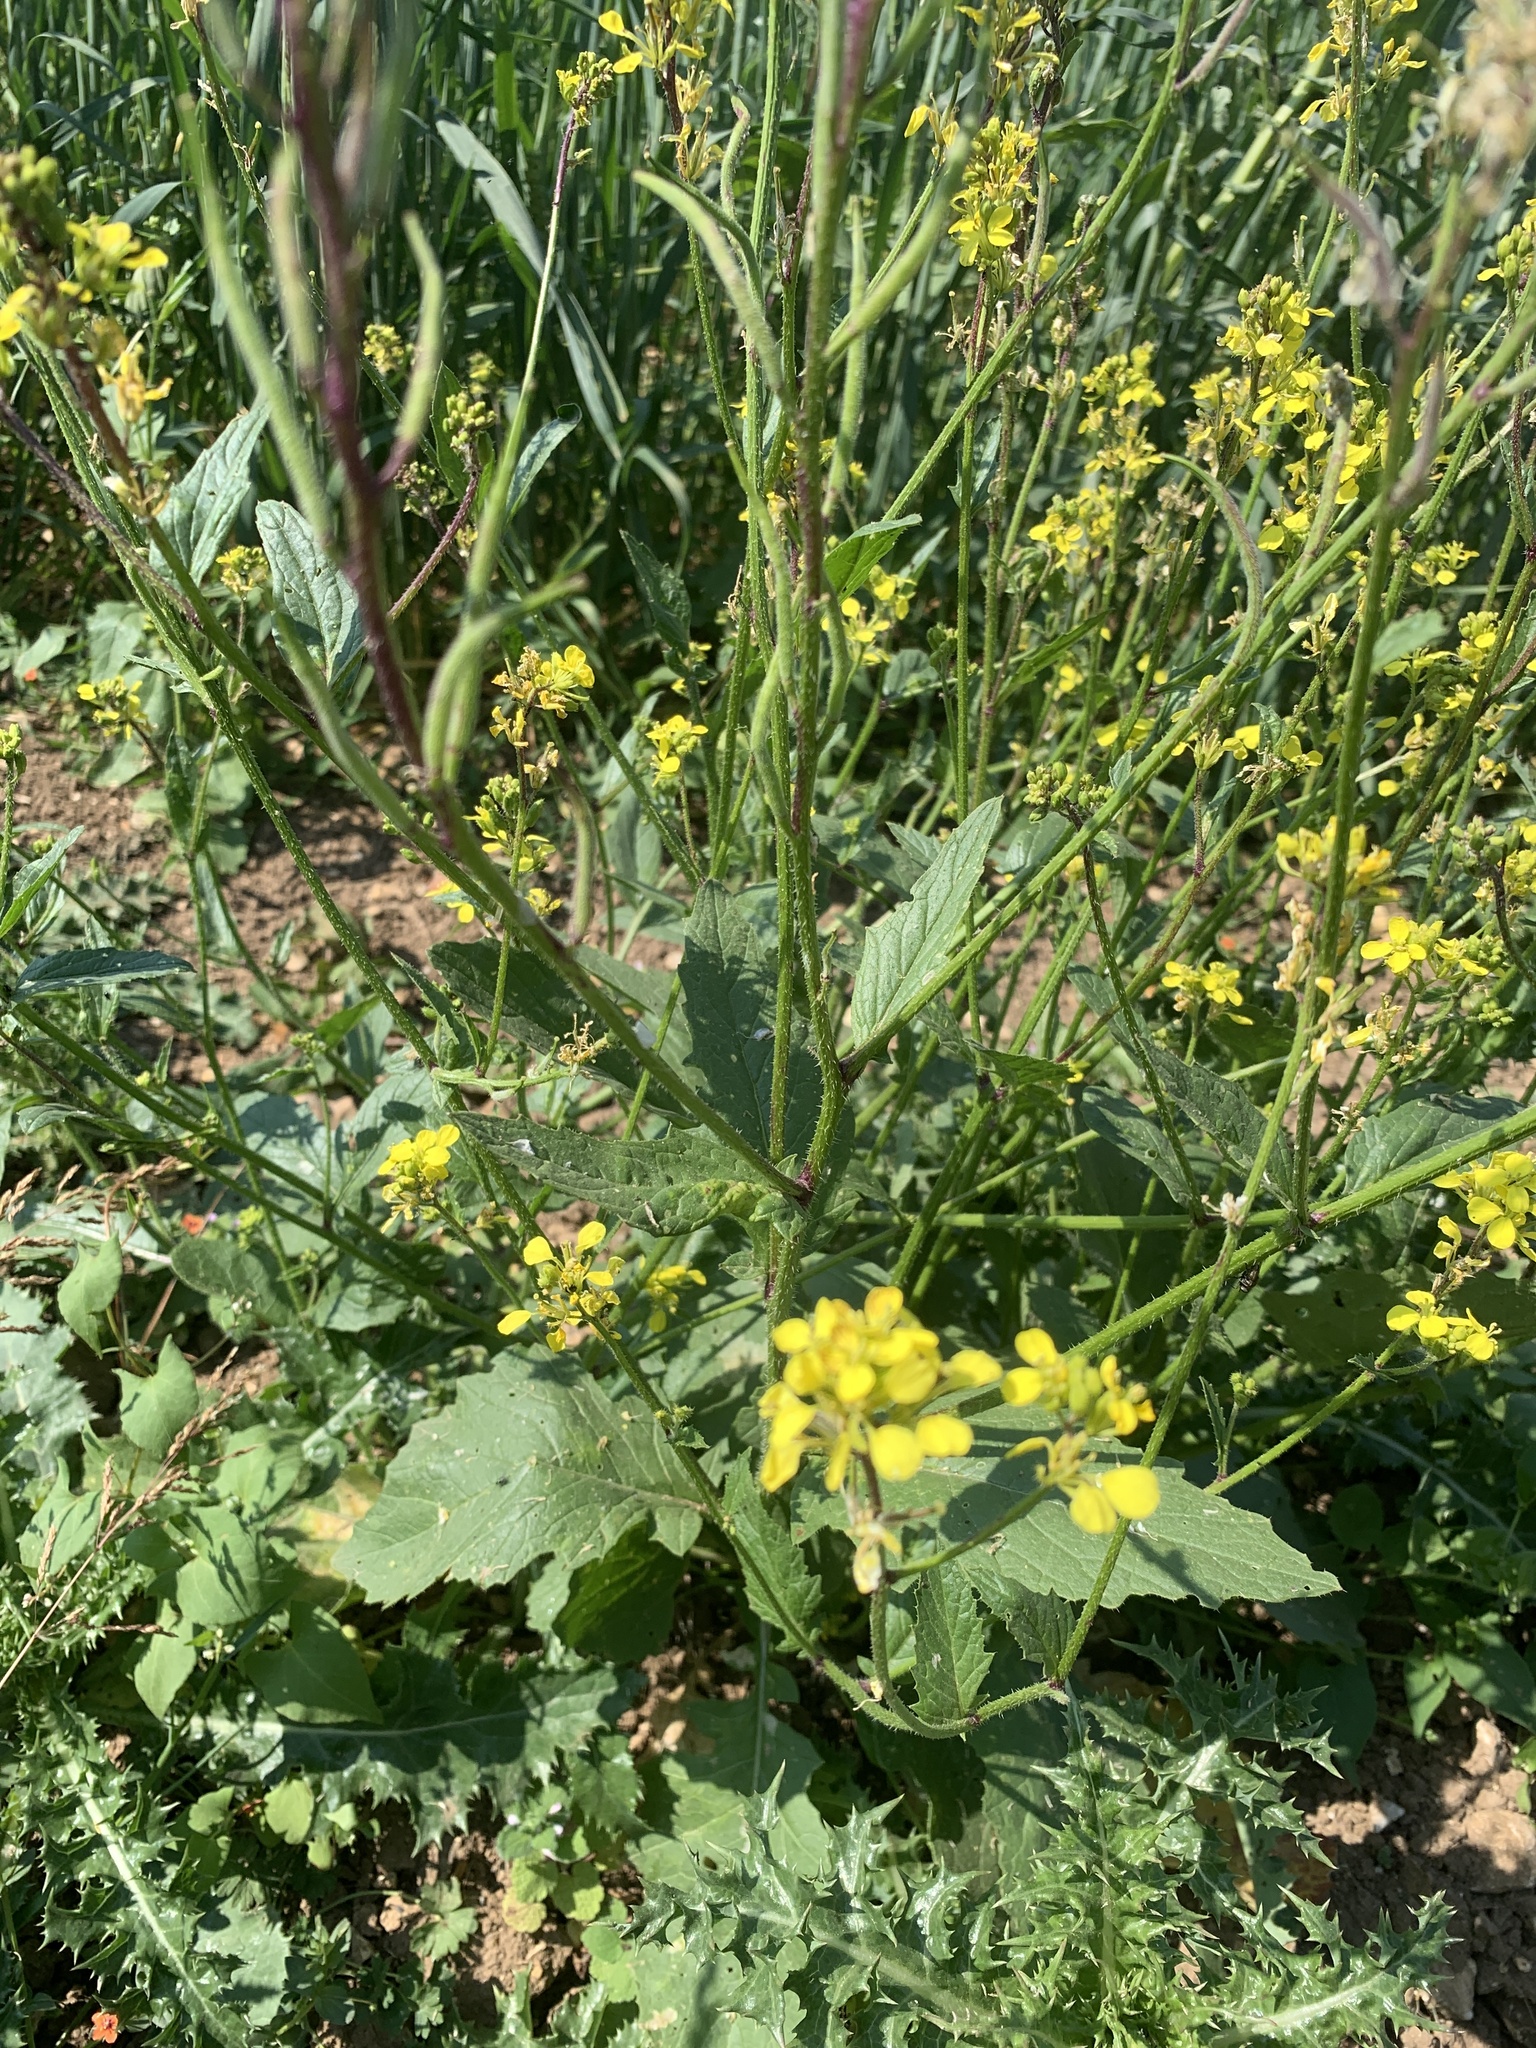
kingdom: Plantae
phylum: Tracheophyta
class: Magnoliopsida
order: Brassicales
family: Brassicaceae
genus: Sinapis
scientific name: Sinapis arvensis
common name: Charlock
